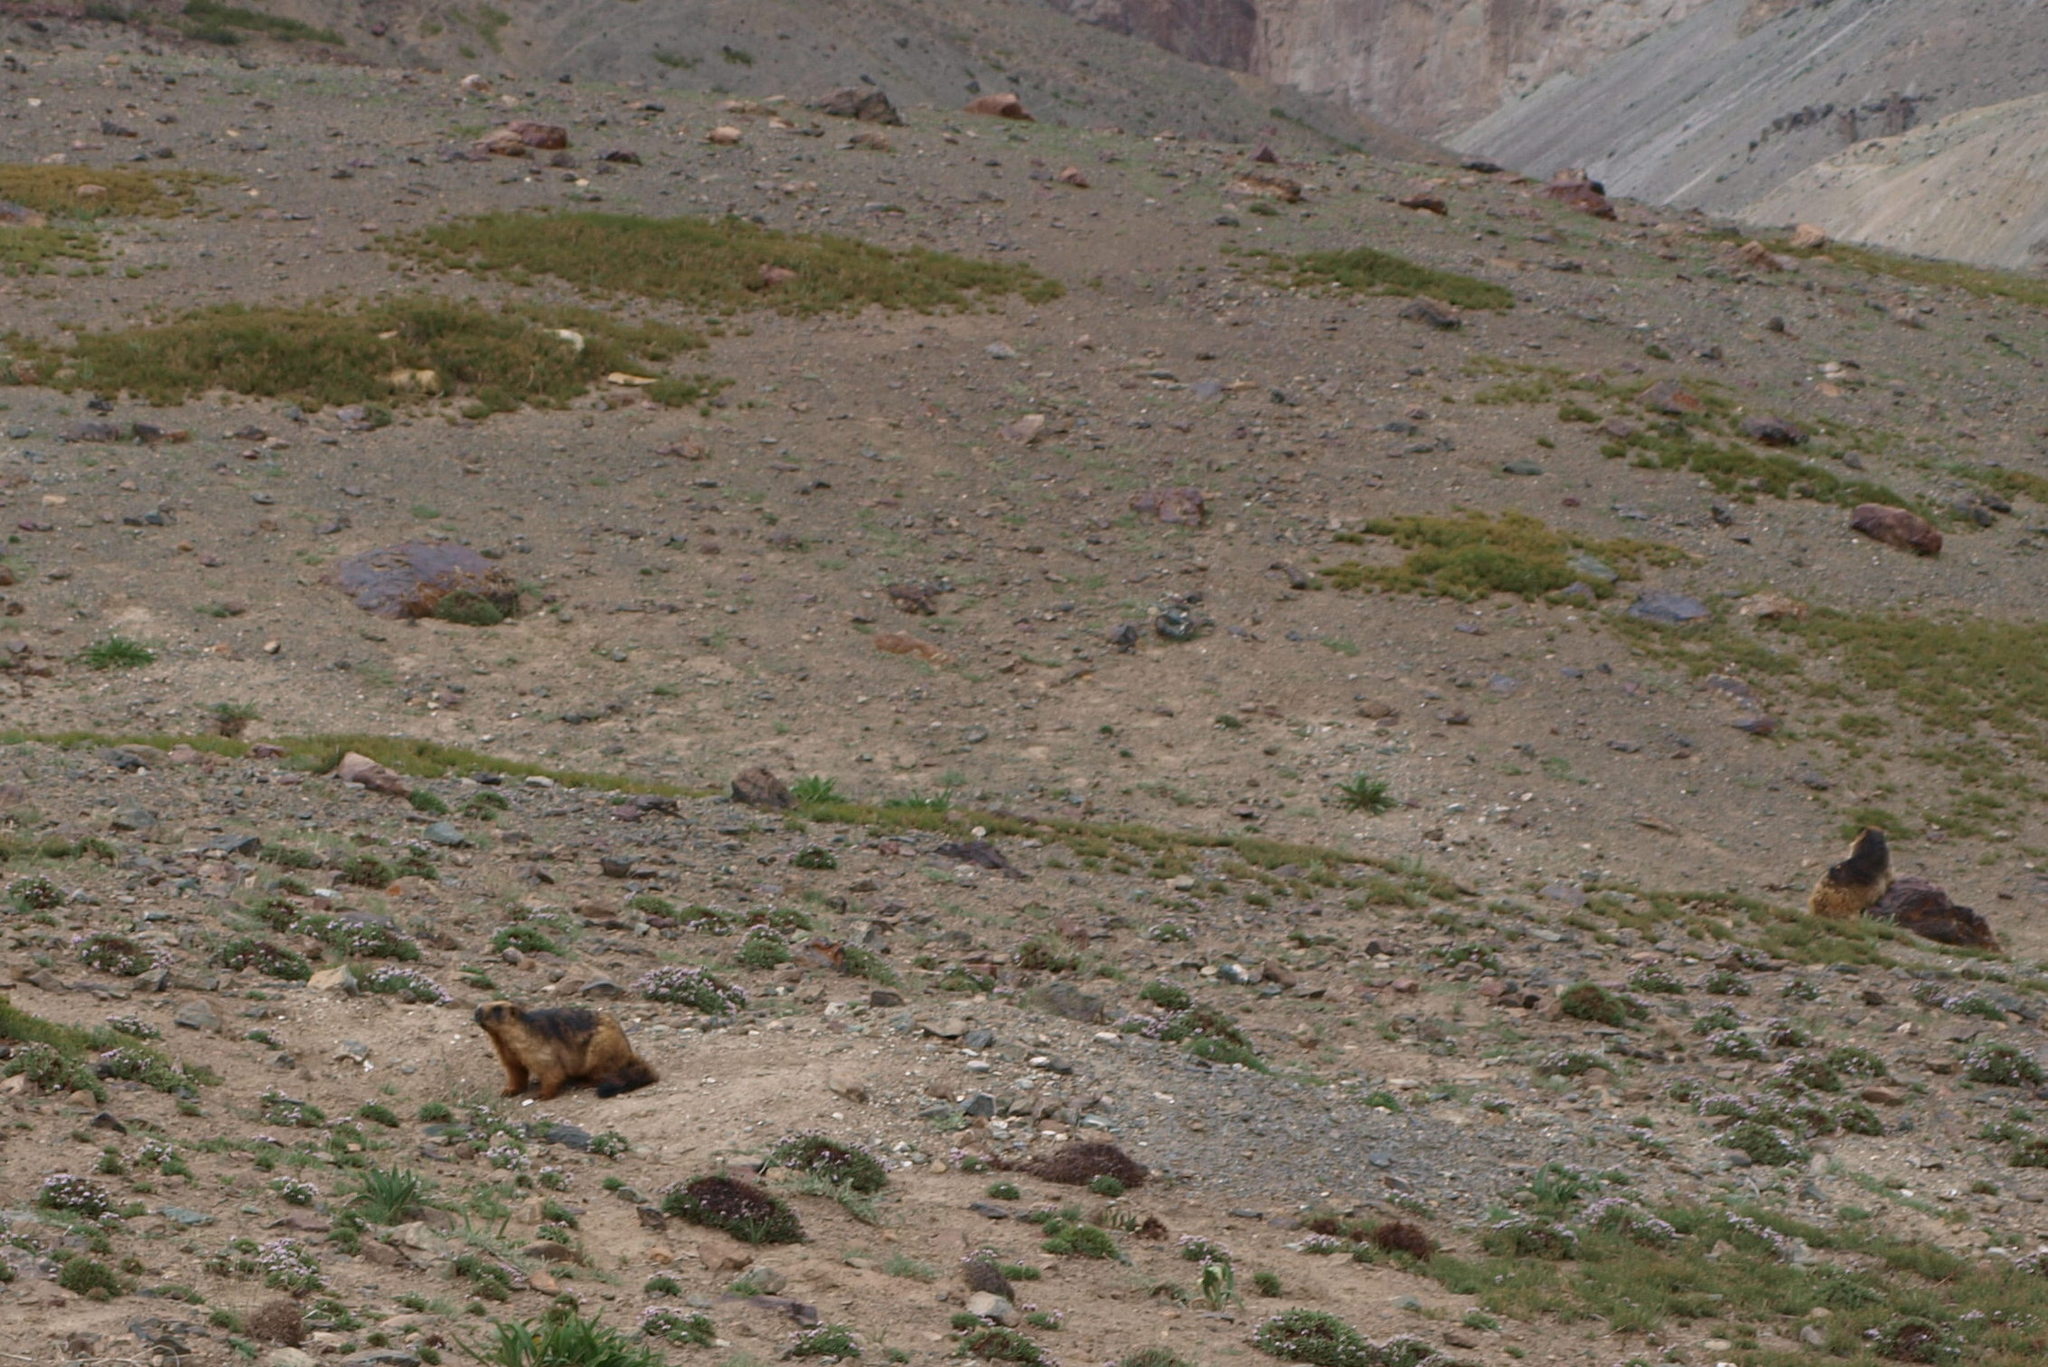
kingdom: Animalia
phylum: Chordata
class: Mammalia
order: Rodentia
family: Sciuridae
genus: Marmota
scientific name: Marmota himalayana
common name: Himalayan marmot
